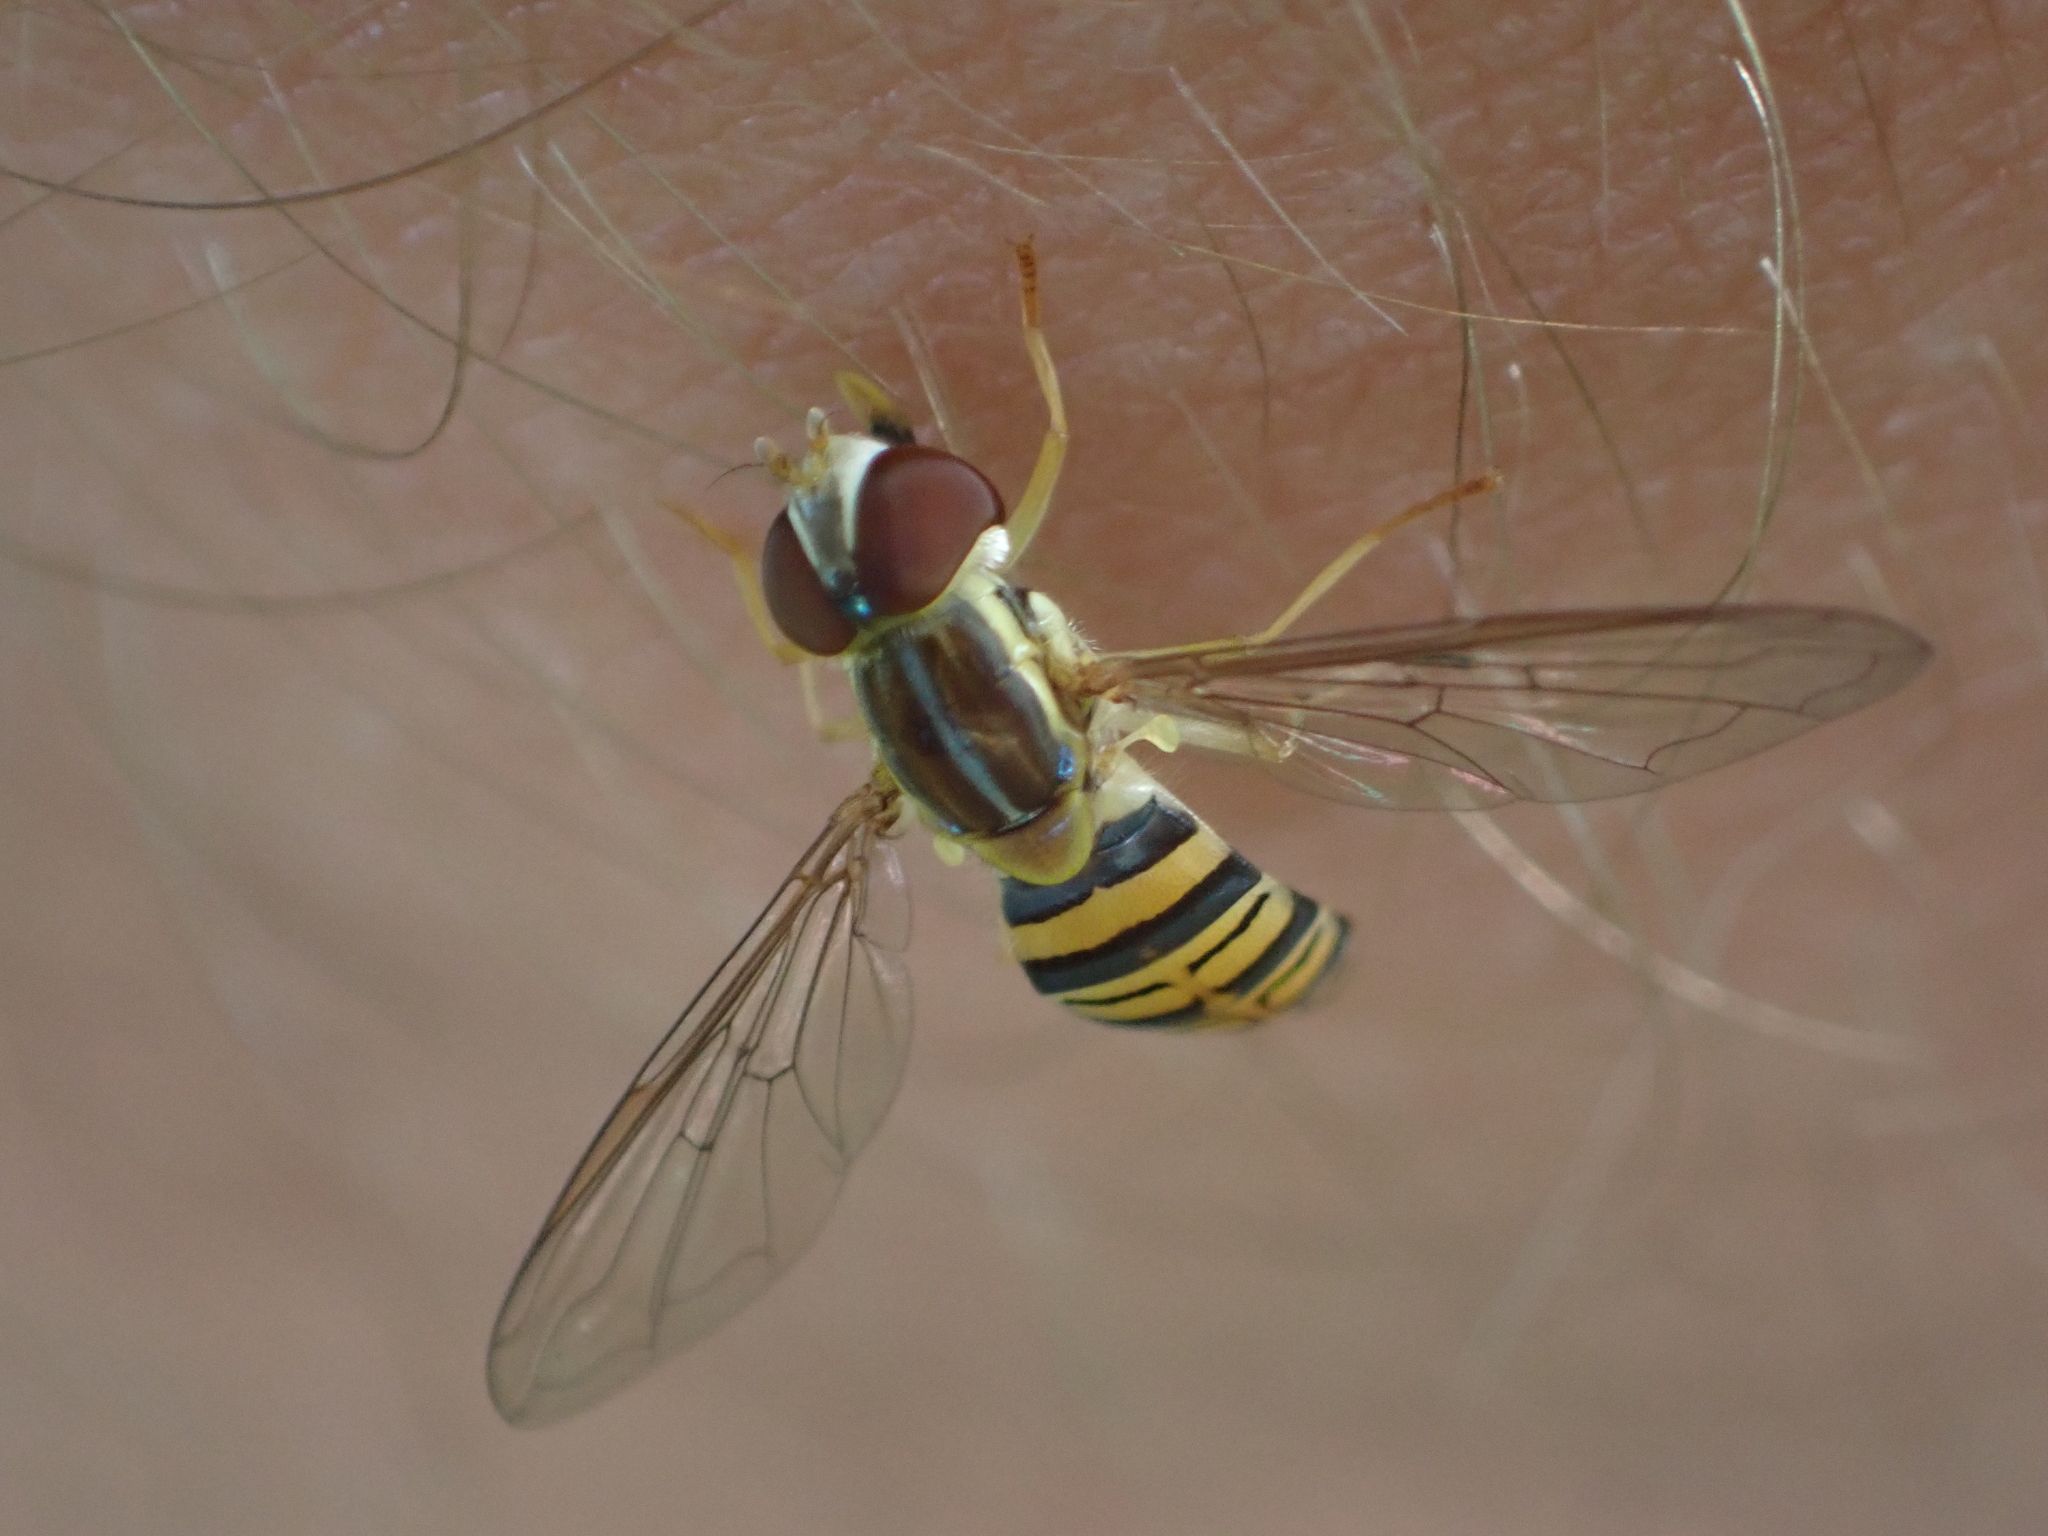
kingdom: Animalia
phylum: Arthropoda
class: Insecta
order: Diptera
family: Syrphidae
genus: Toxomerus
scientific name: Toxomerus politus
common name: Maize calligrapher
